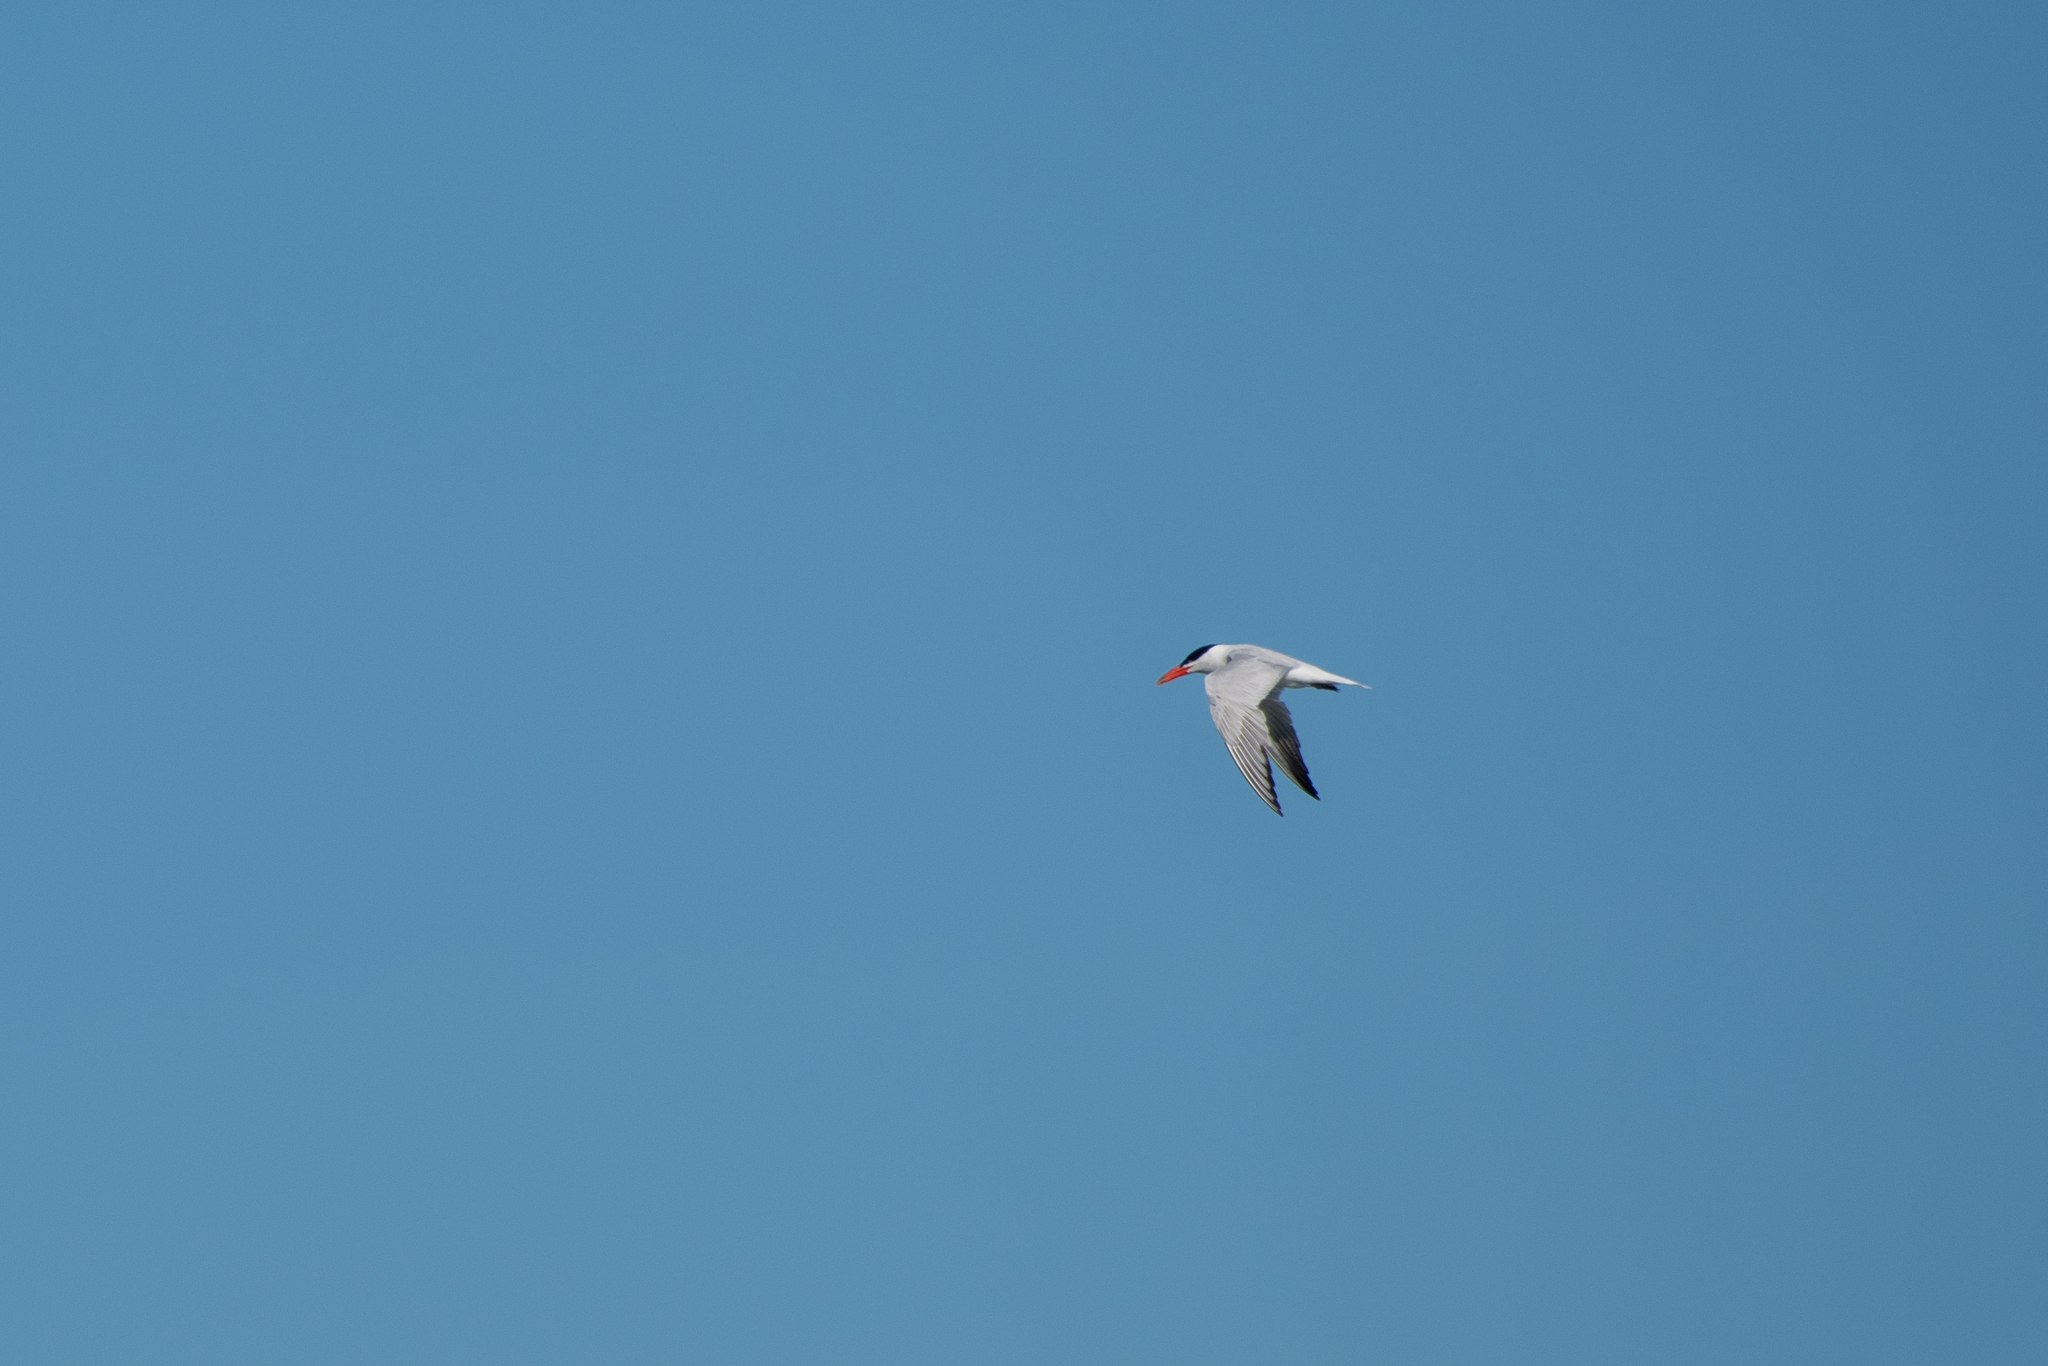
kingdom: Animalia
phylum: Chordata
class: Aves
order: Charadriiformes
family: Laridae
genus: Hydroprogne
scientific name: Hydroprogne caspia
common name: Caspian tern
